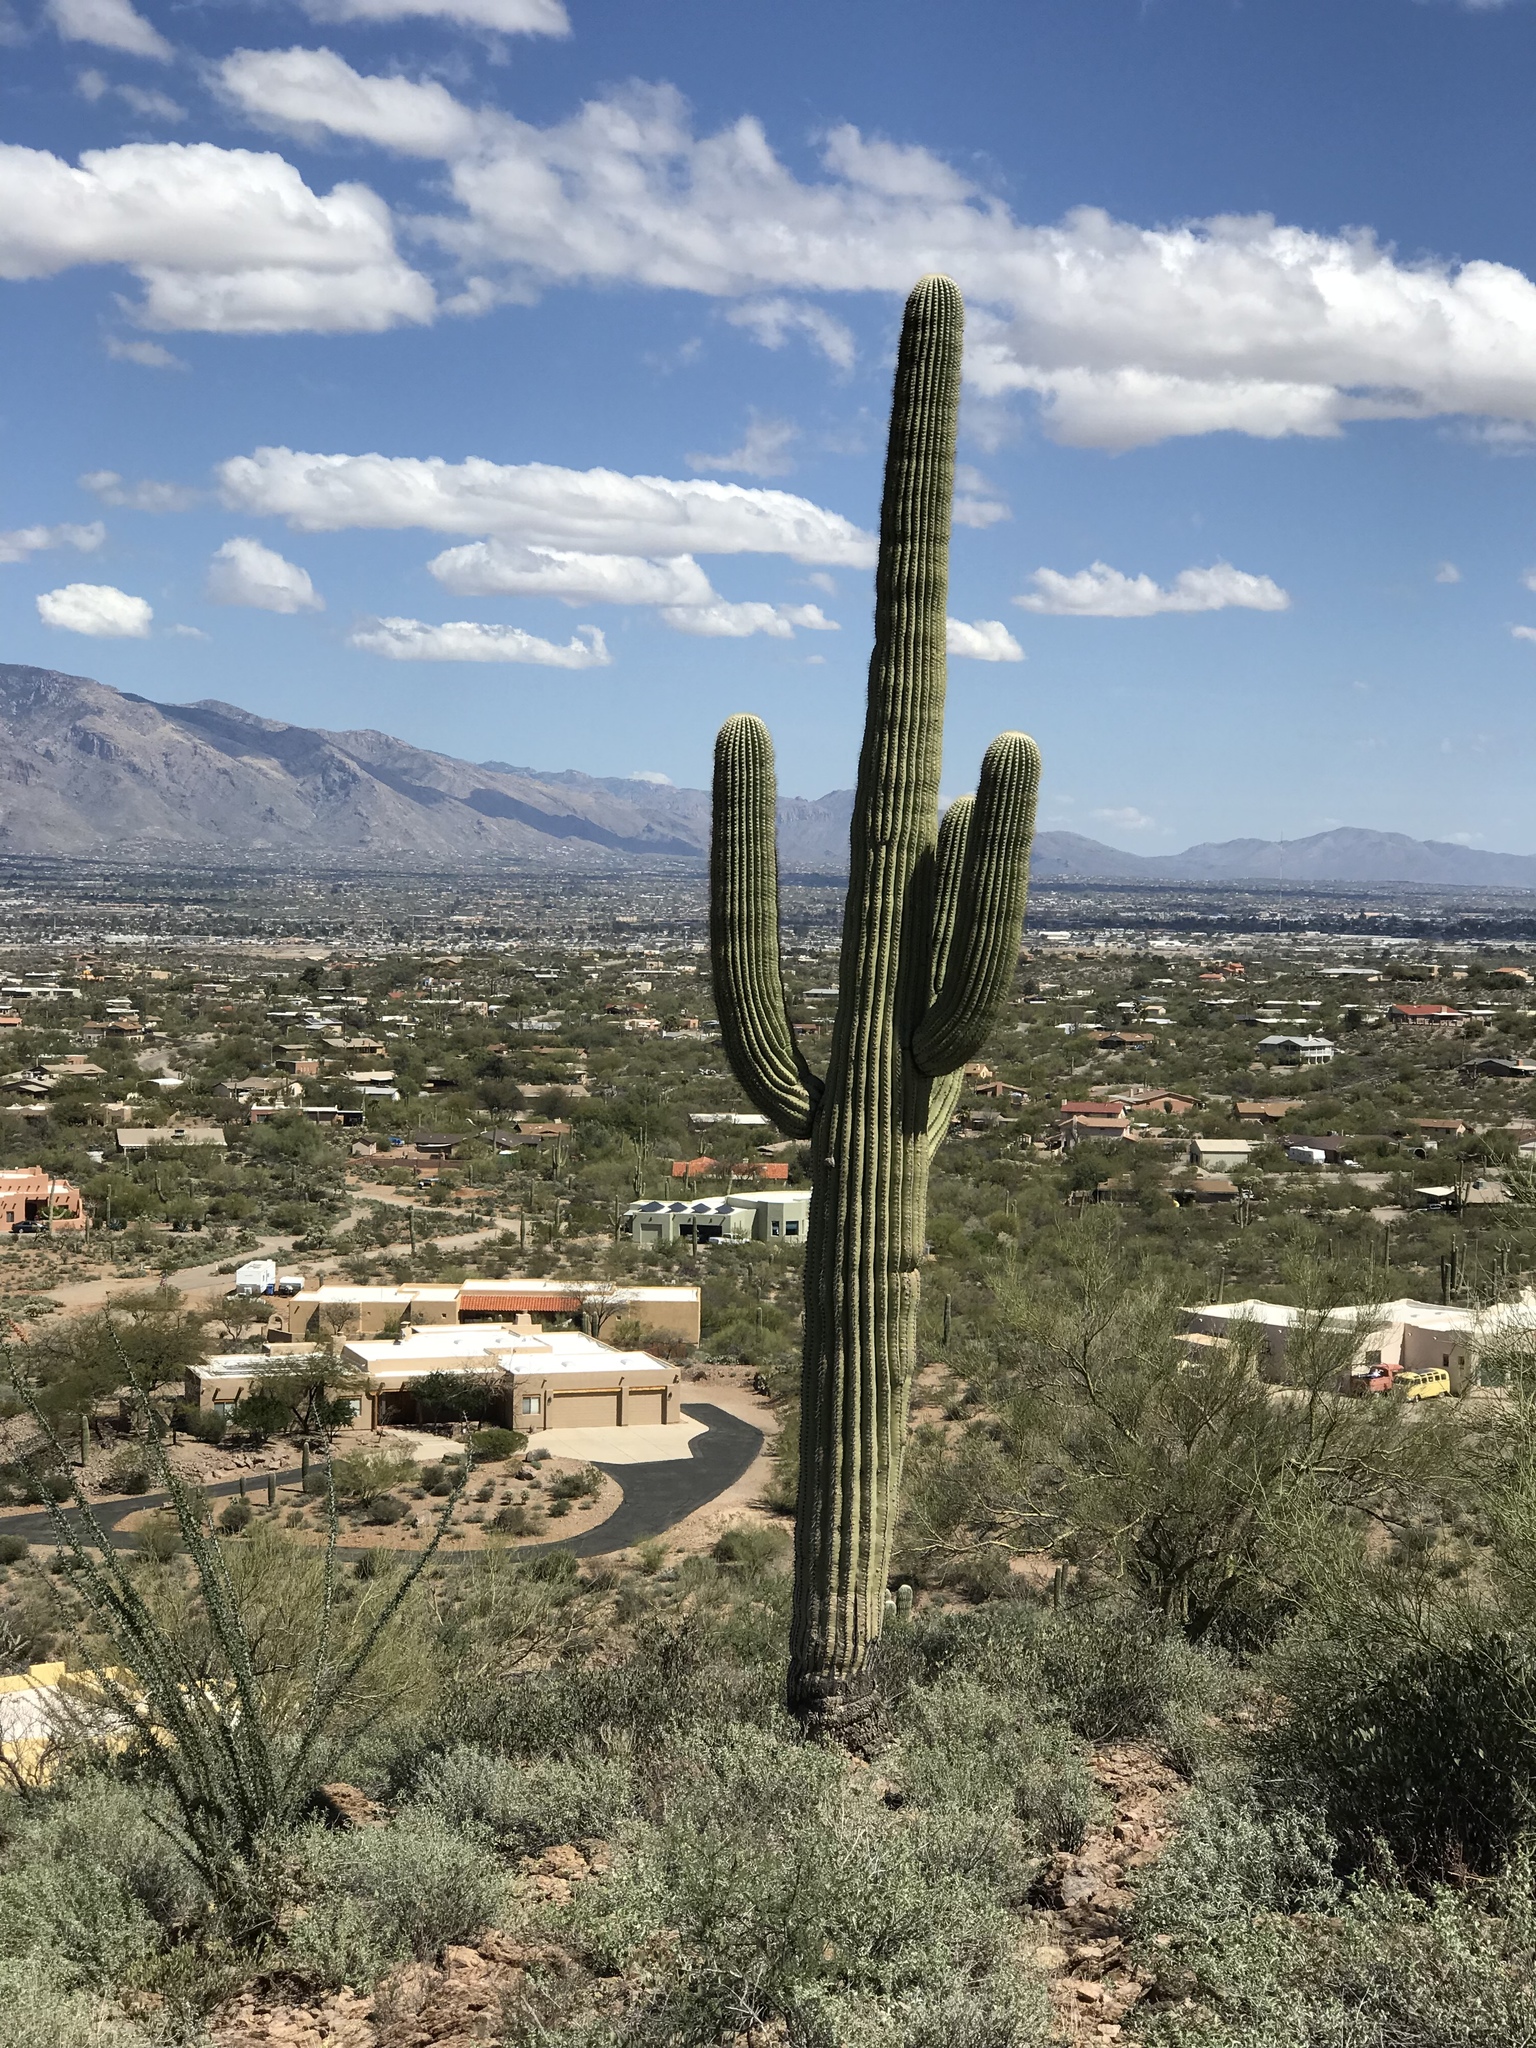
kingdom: Plantae
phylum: Tracheophyta
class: Magnoliopsida
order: Caryophyllales
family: Cactaceae
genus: Carnegiea
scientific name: Carnegiea gigantea
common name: Saguaro
